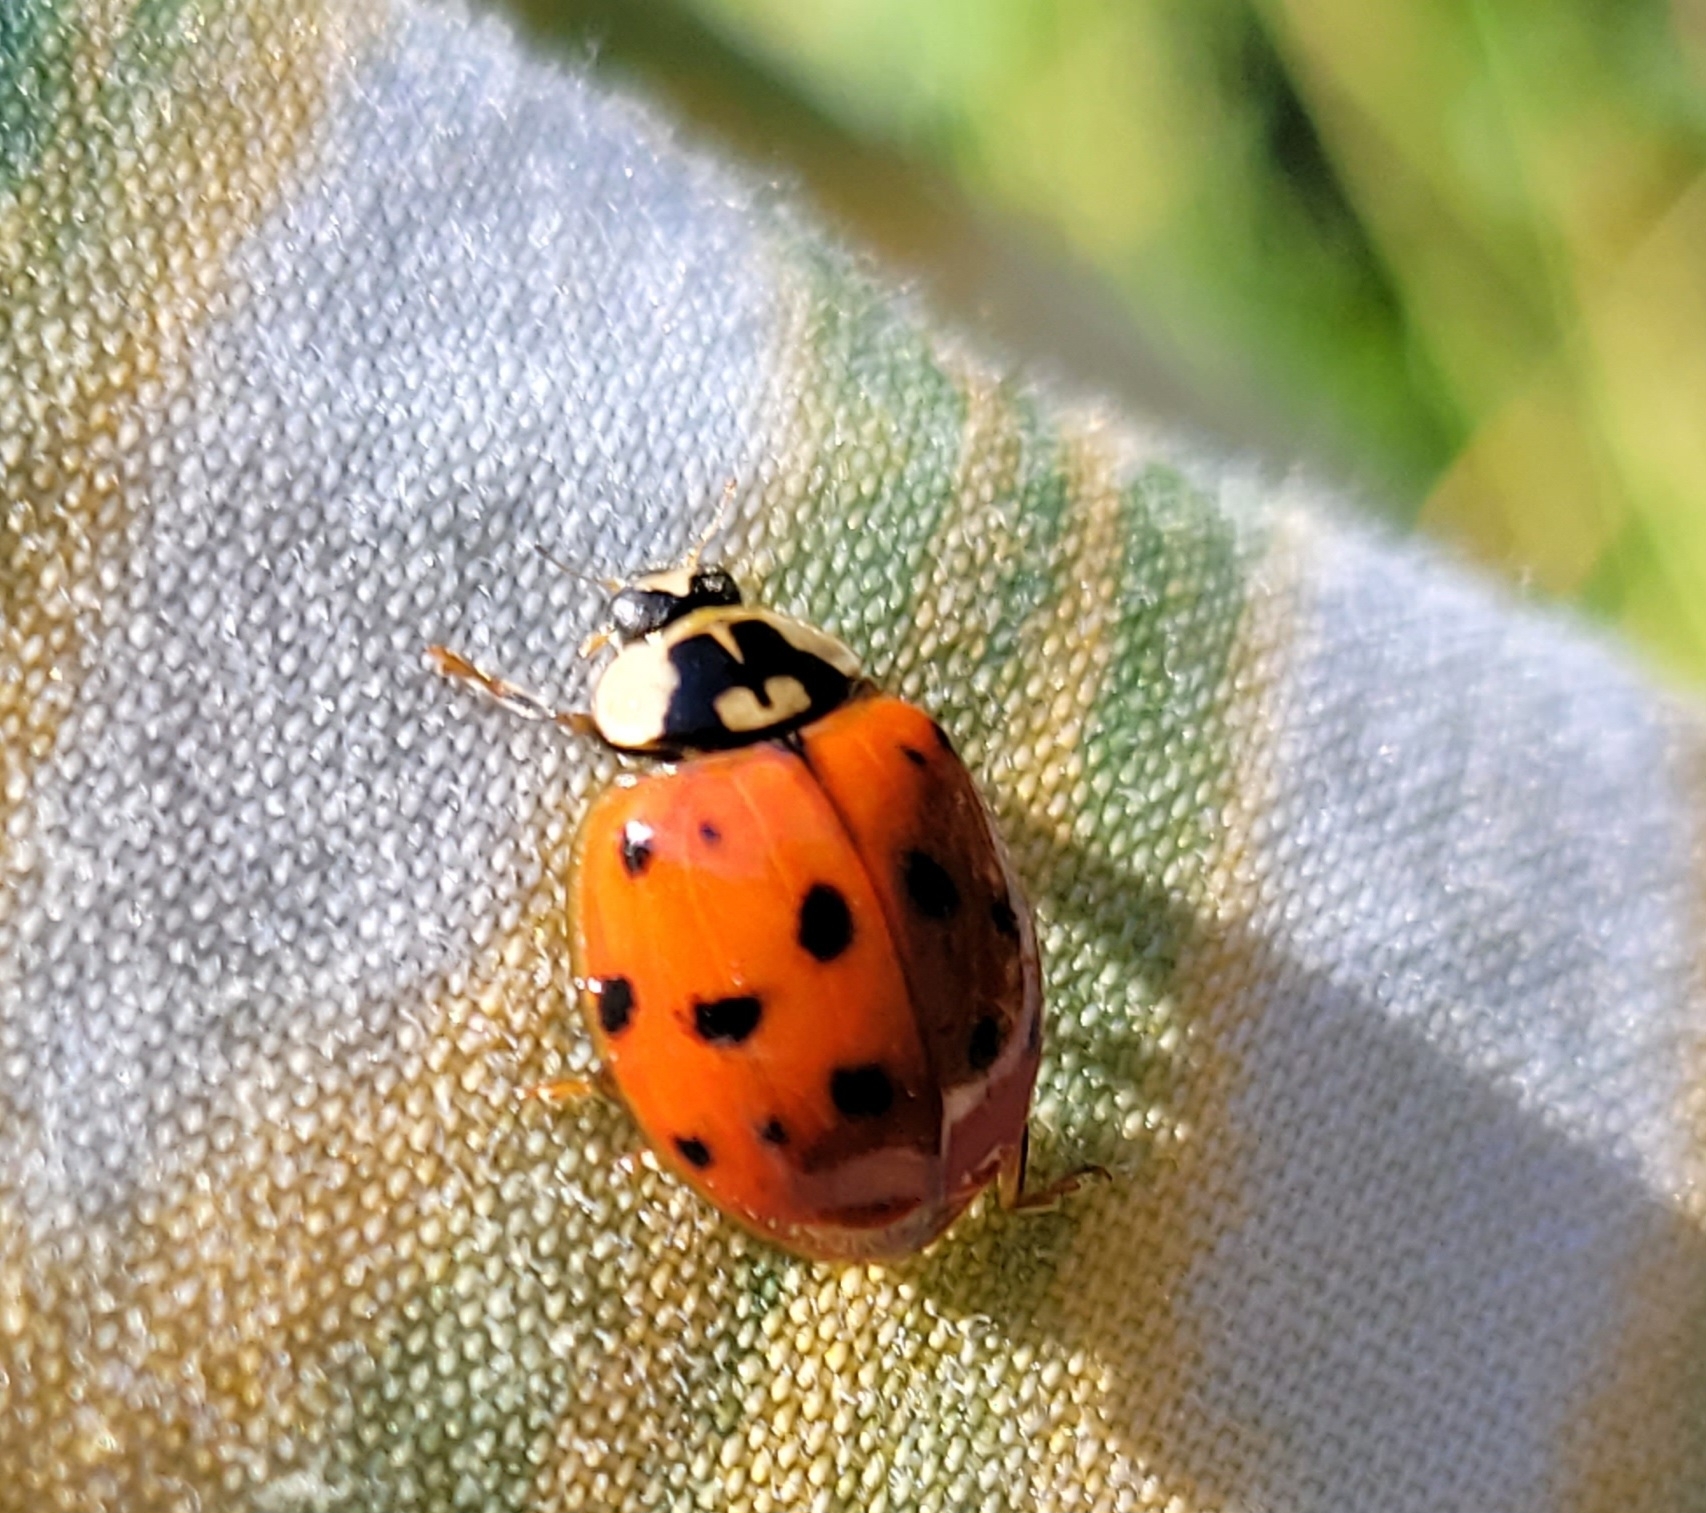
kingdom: Animalia
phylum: Arthropoda
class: Insecta
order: Coleoptera
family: Coccinellidae
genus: Harmonia
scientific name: Harmonia axyridis
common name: Harlequin ladybird
